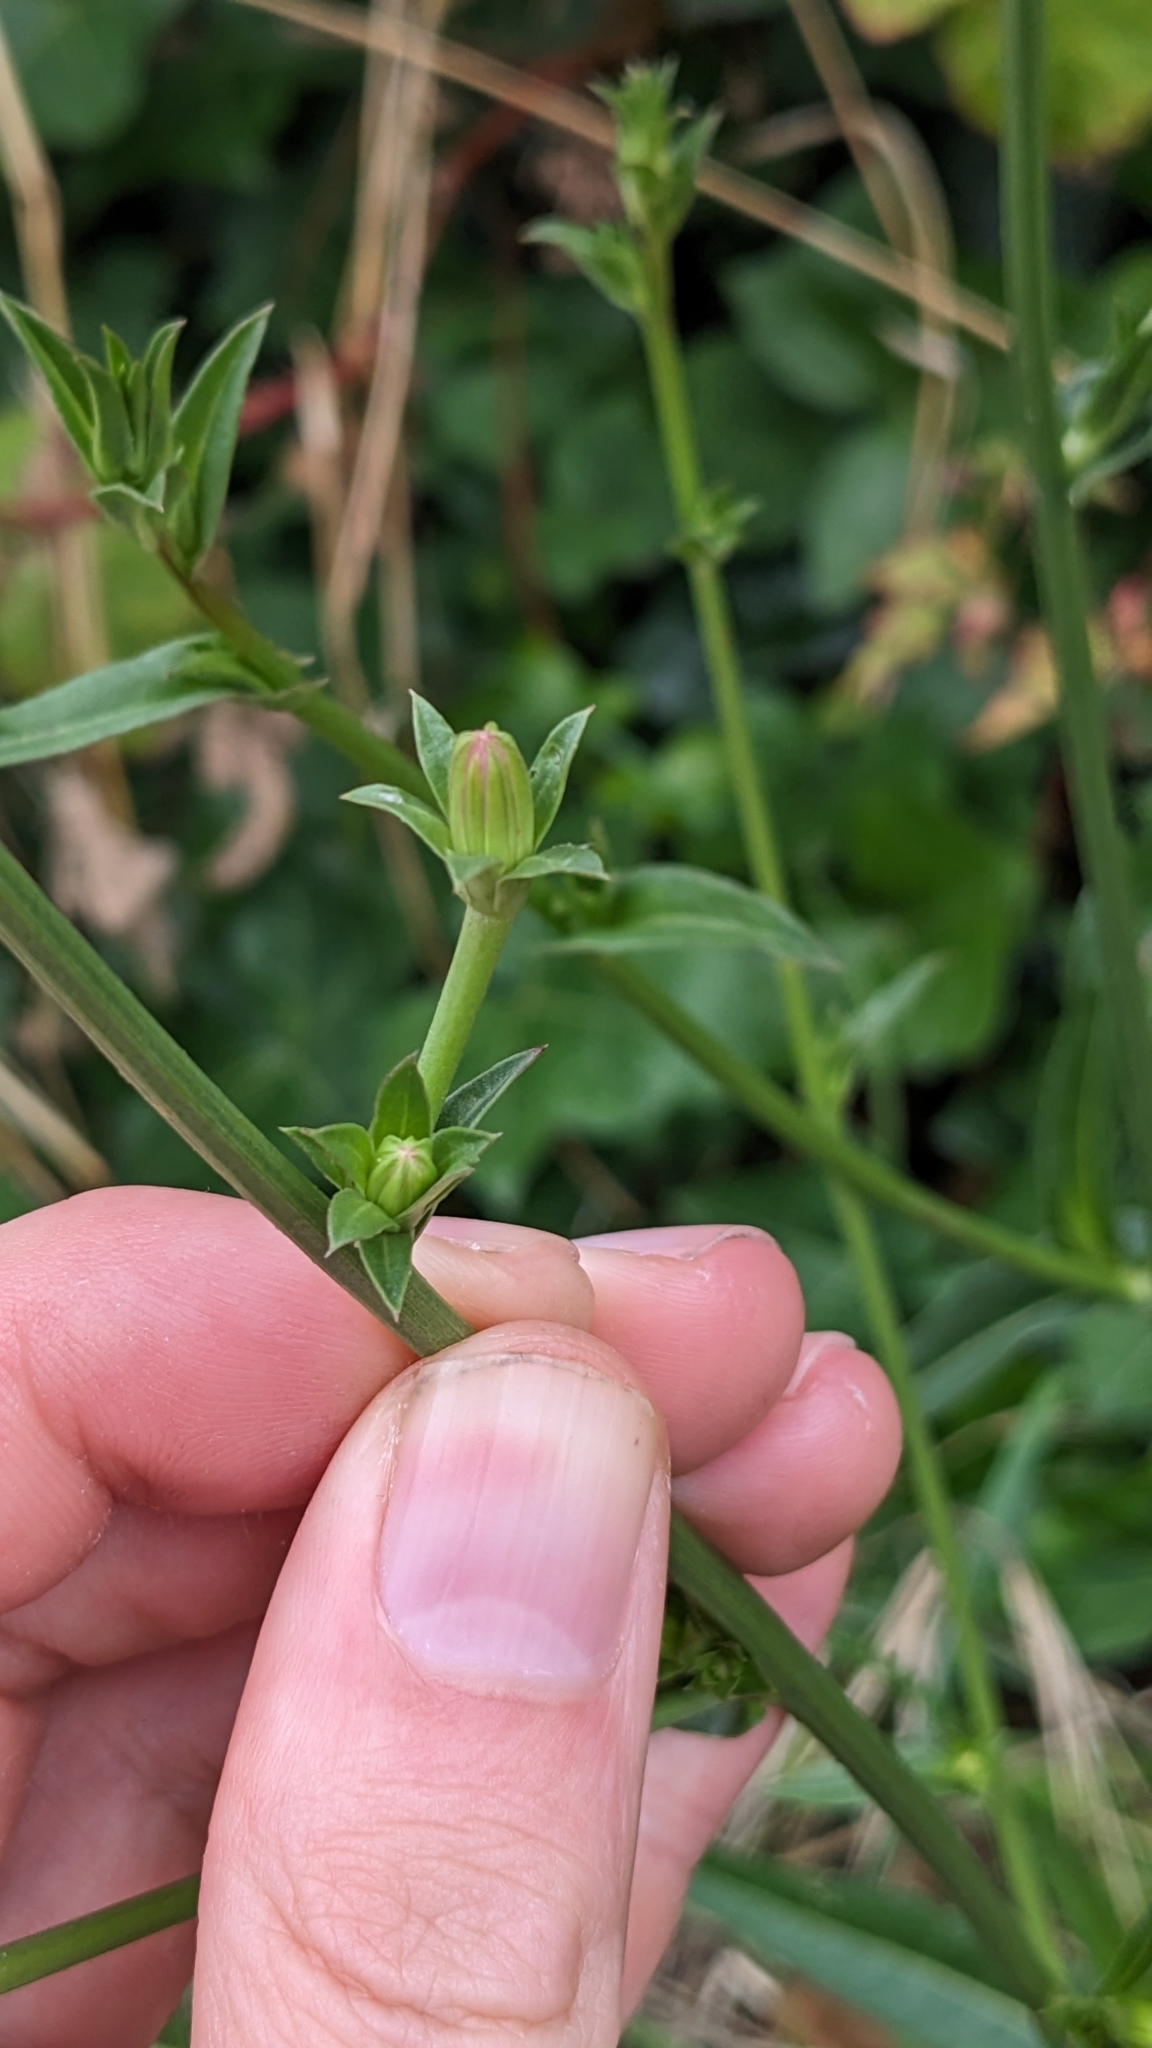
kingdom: Plantae
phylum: Tracheophyta
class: Magnoliopsida
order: Asterales
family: Asteraceae
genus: Cichorium
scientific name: Cichorium intybus
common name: Chicory
